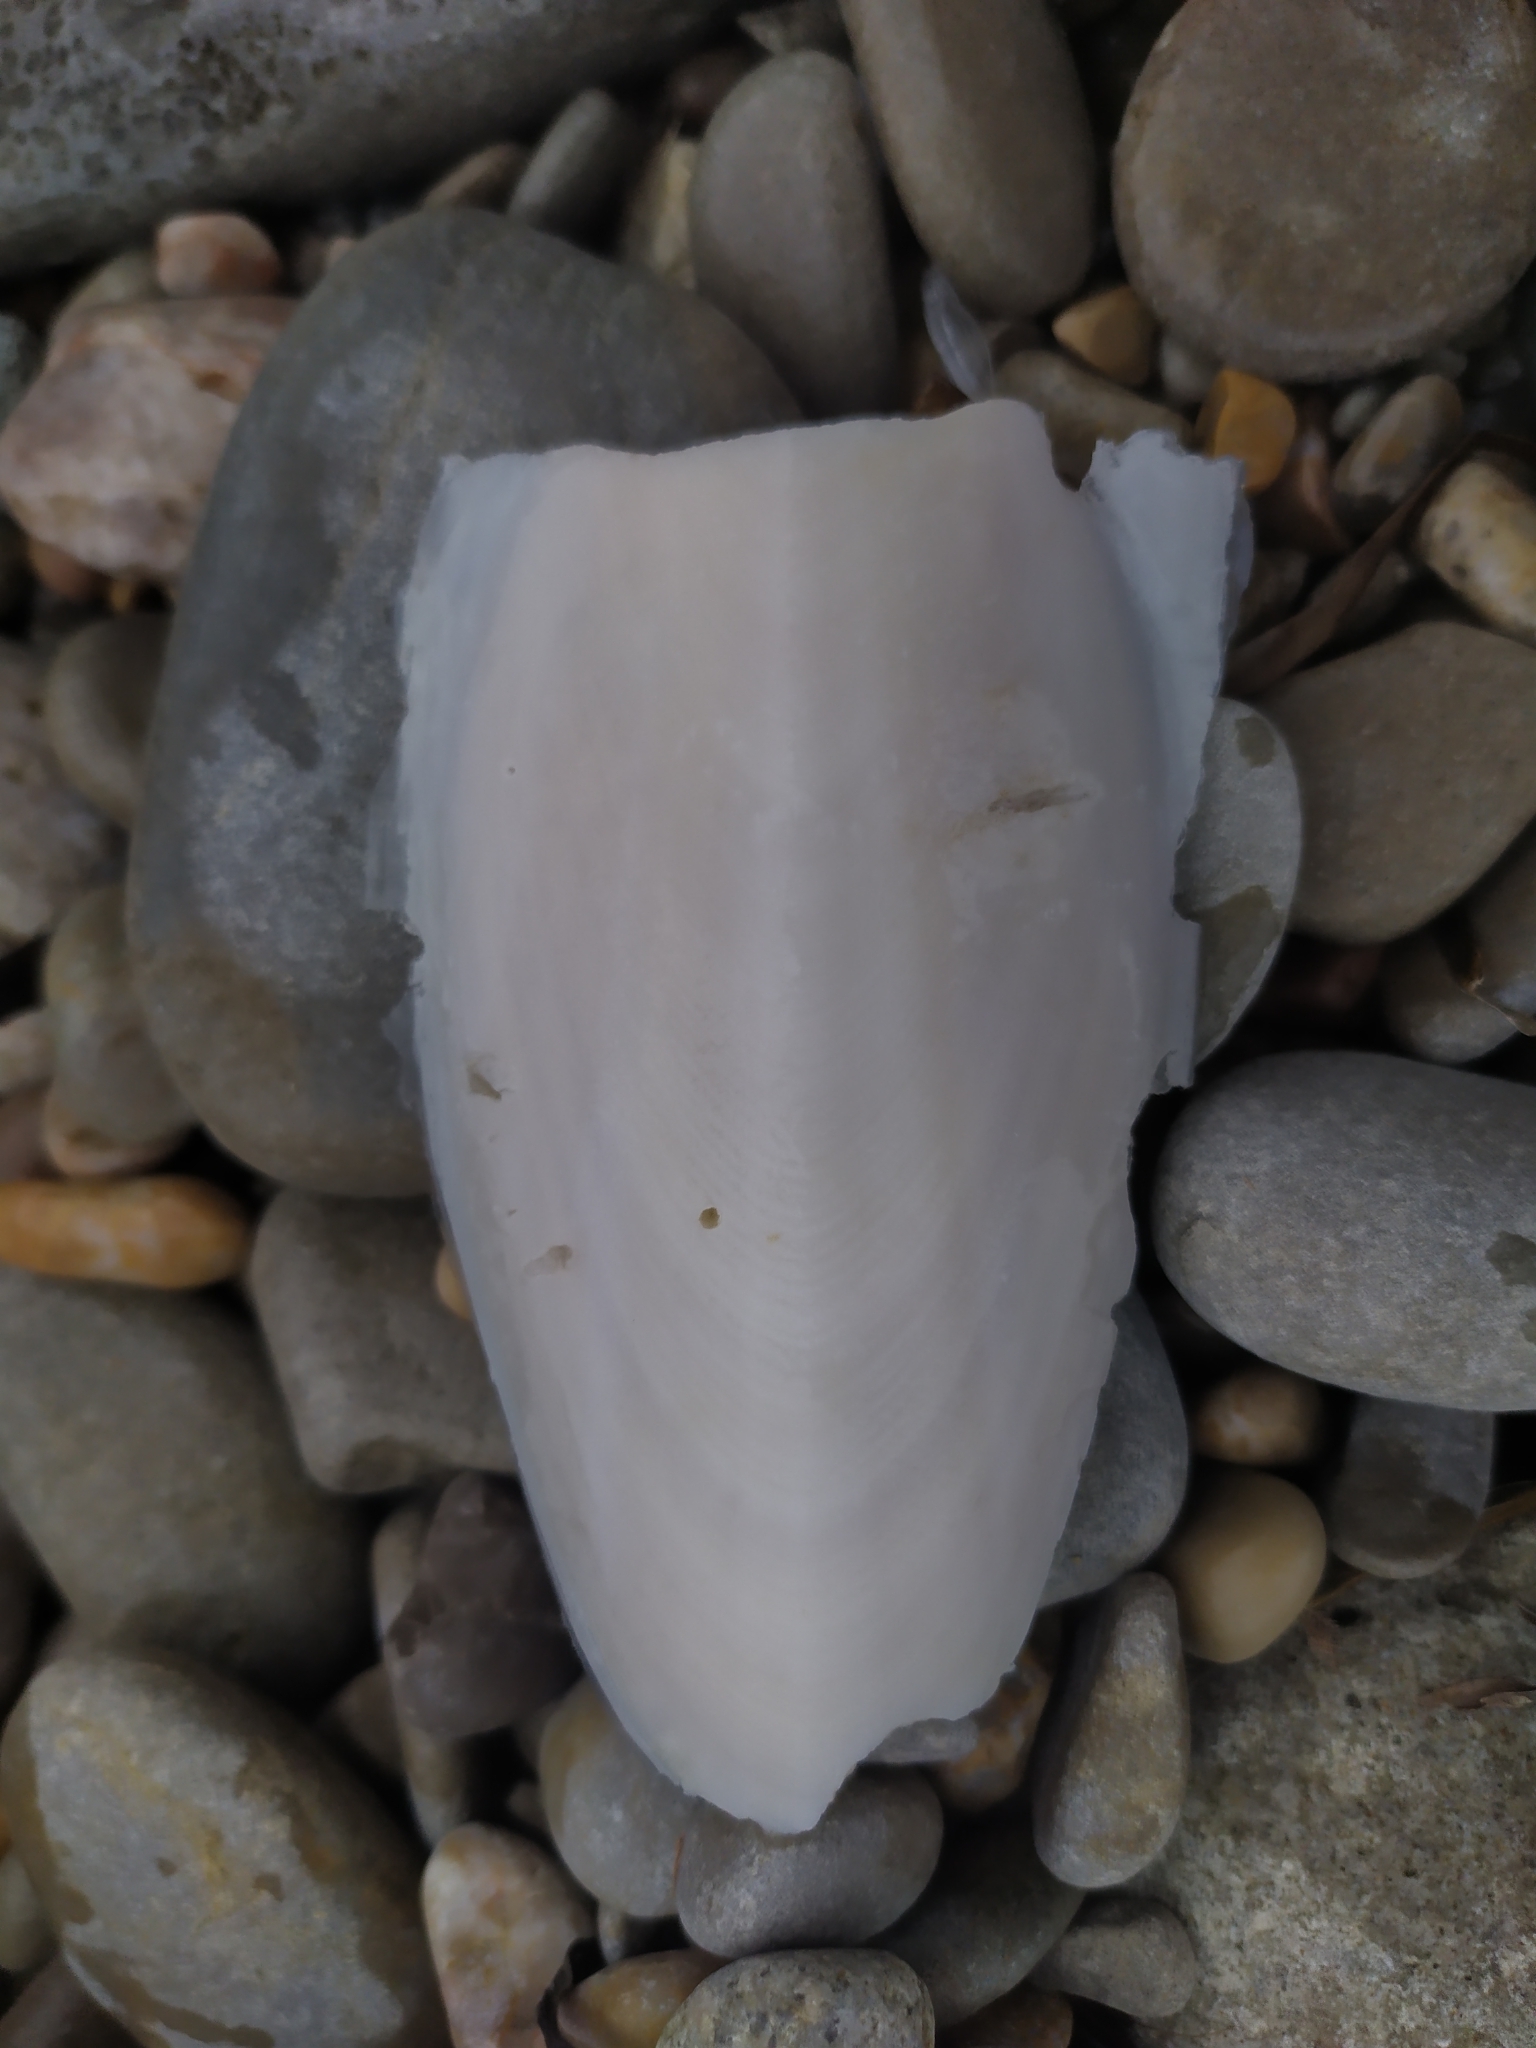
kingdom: Animalia
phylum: Mollusca
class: Cephalopoda
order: Sepiida
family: Sepiidae
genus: Sepia
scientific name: Sepia officinalis
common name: Common cuttlefish
